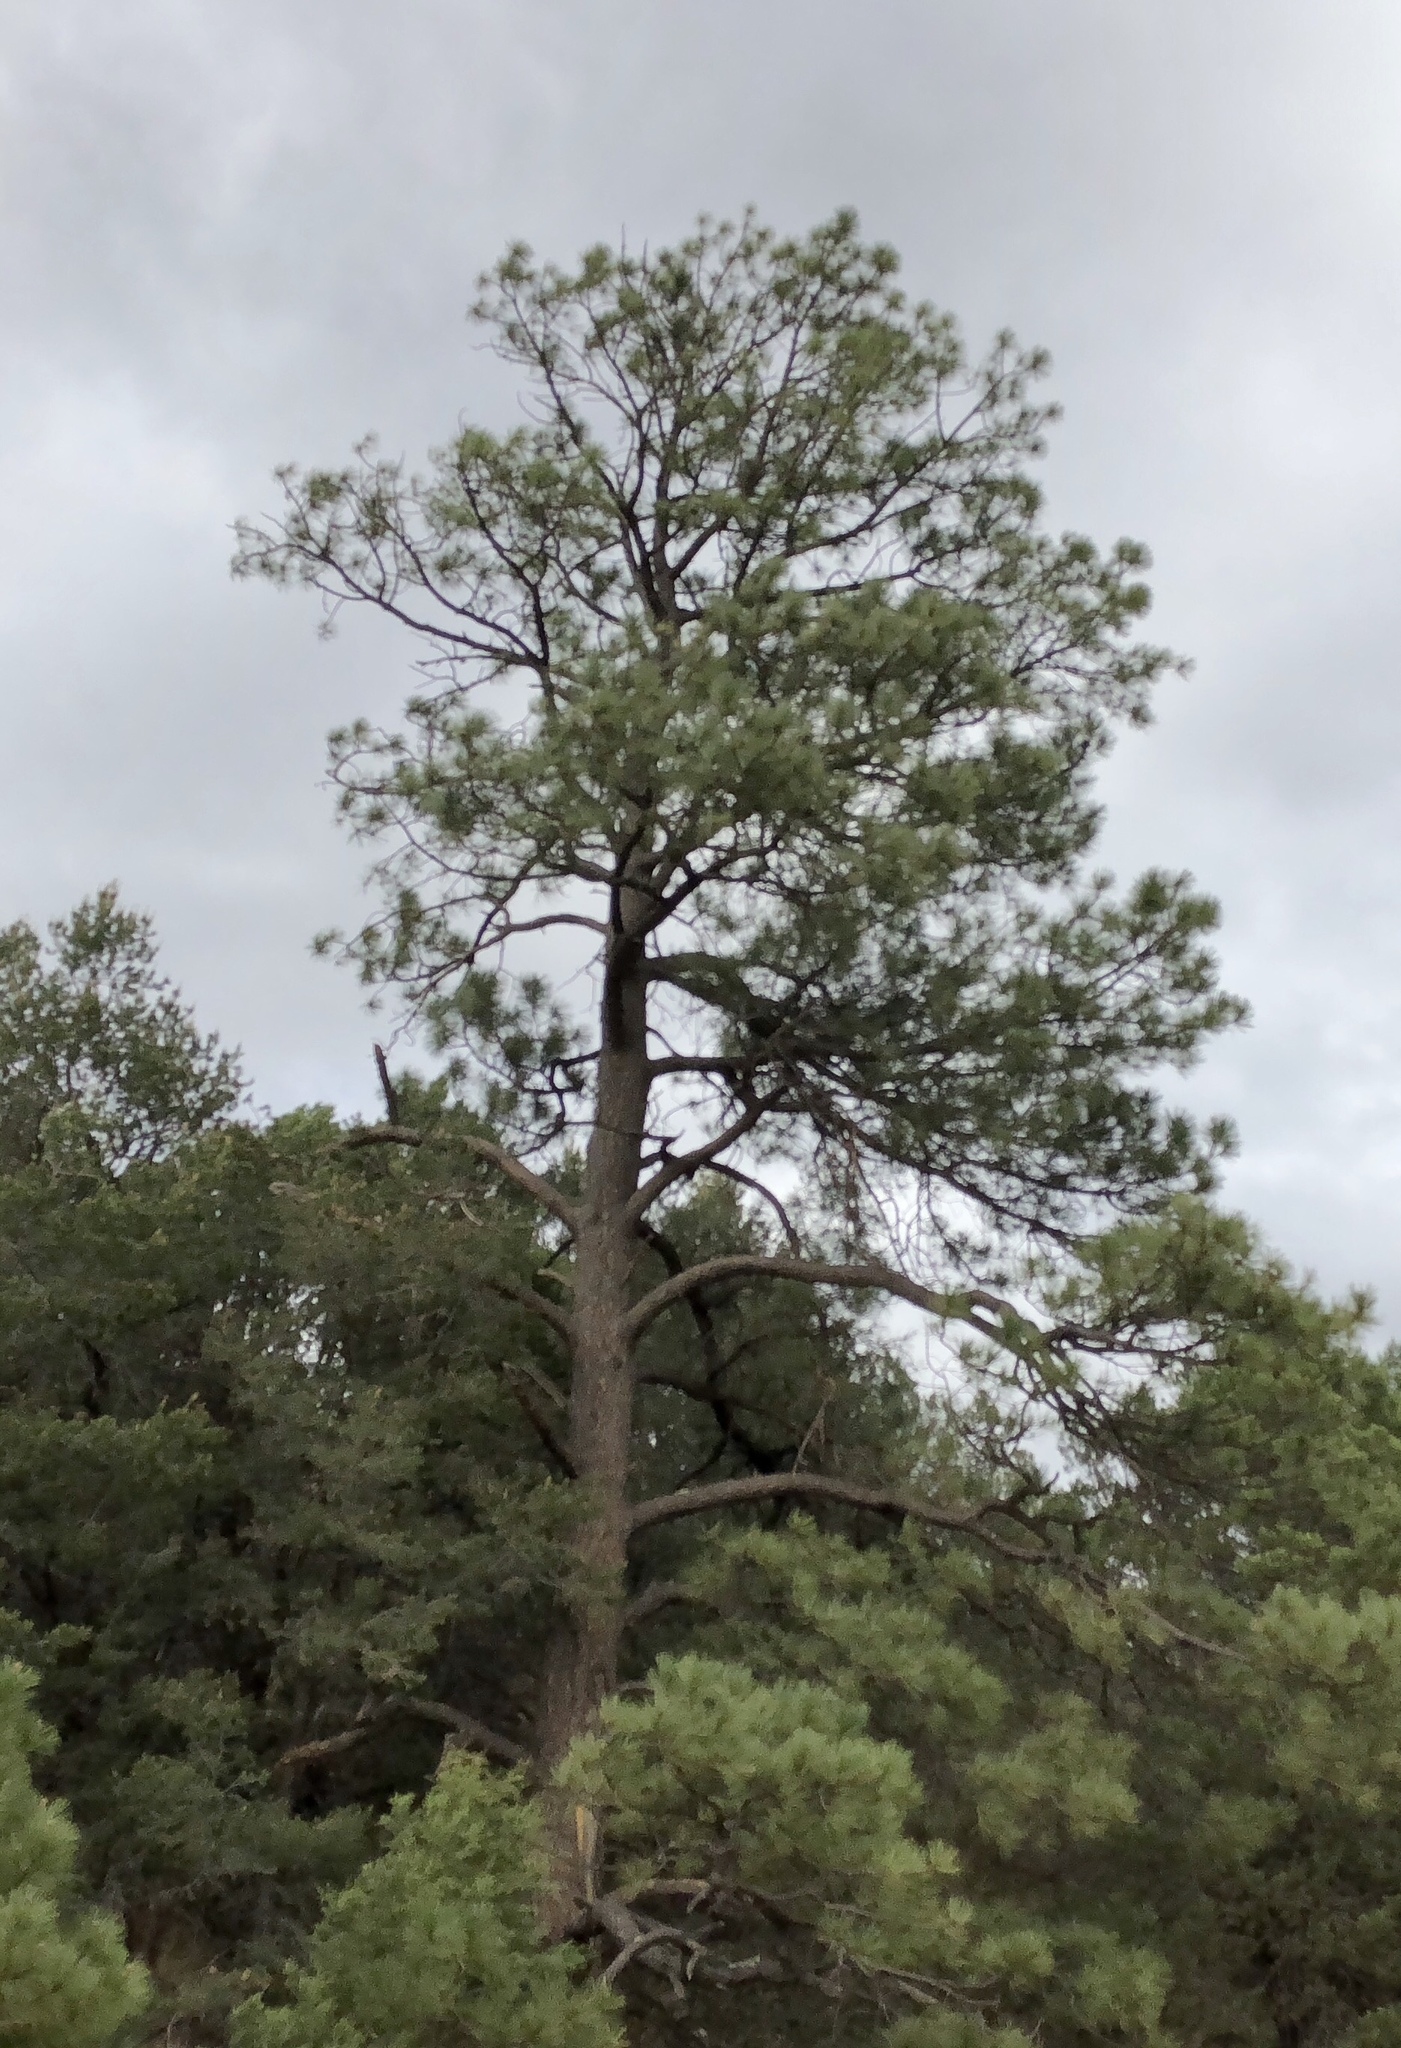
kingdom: Plantae
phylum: Tracheophyta
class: Pinopsida
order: Pinales
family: Pinaceae
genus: Pinus
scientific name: Pinus ponderosa
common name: Western yellow-pine
